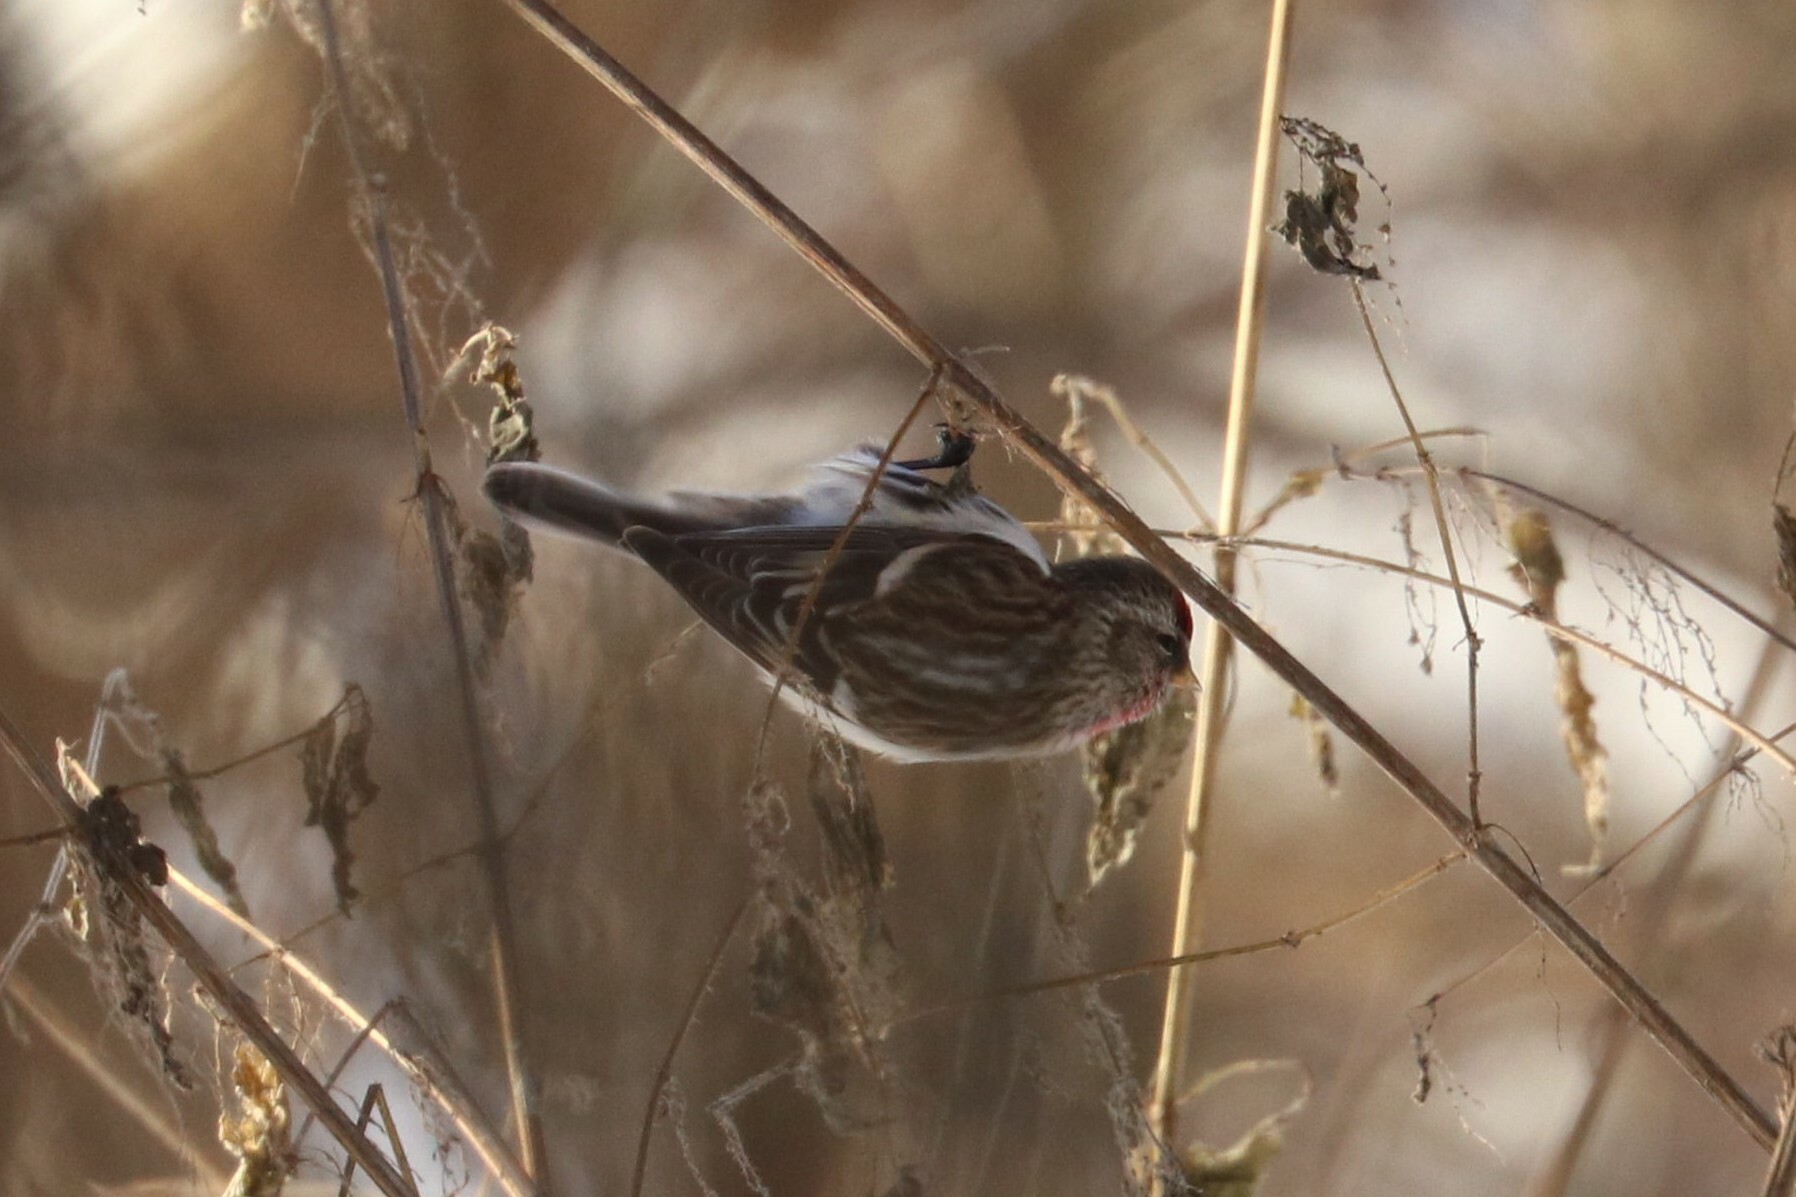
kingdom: Animalia
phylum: Chordata
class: Aves
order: Passeriformes
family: Fringillidae
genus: Acanthis
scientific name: Acanthis flammea
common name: Common redpoll
